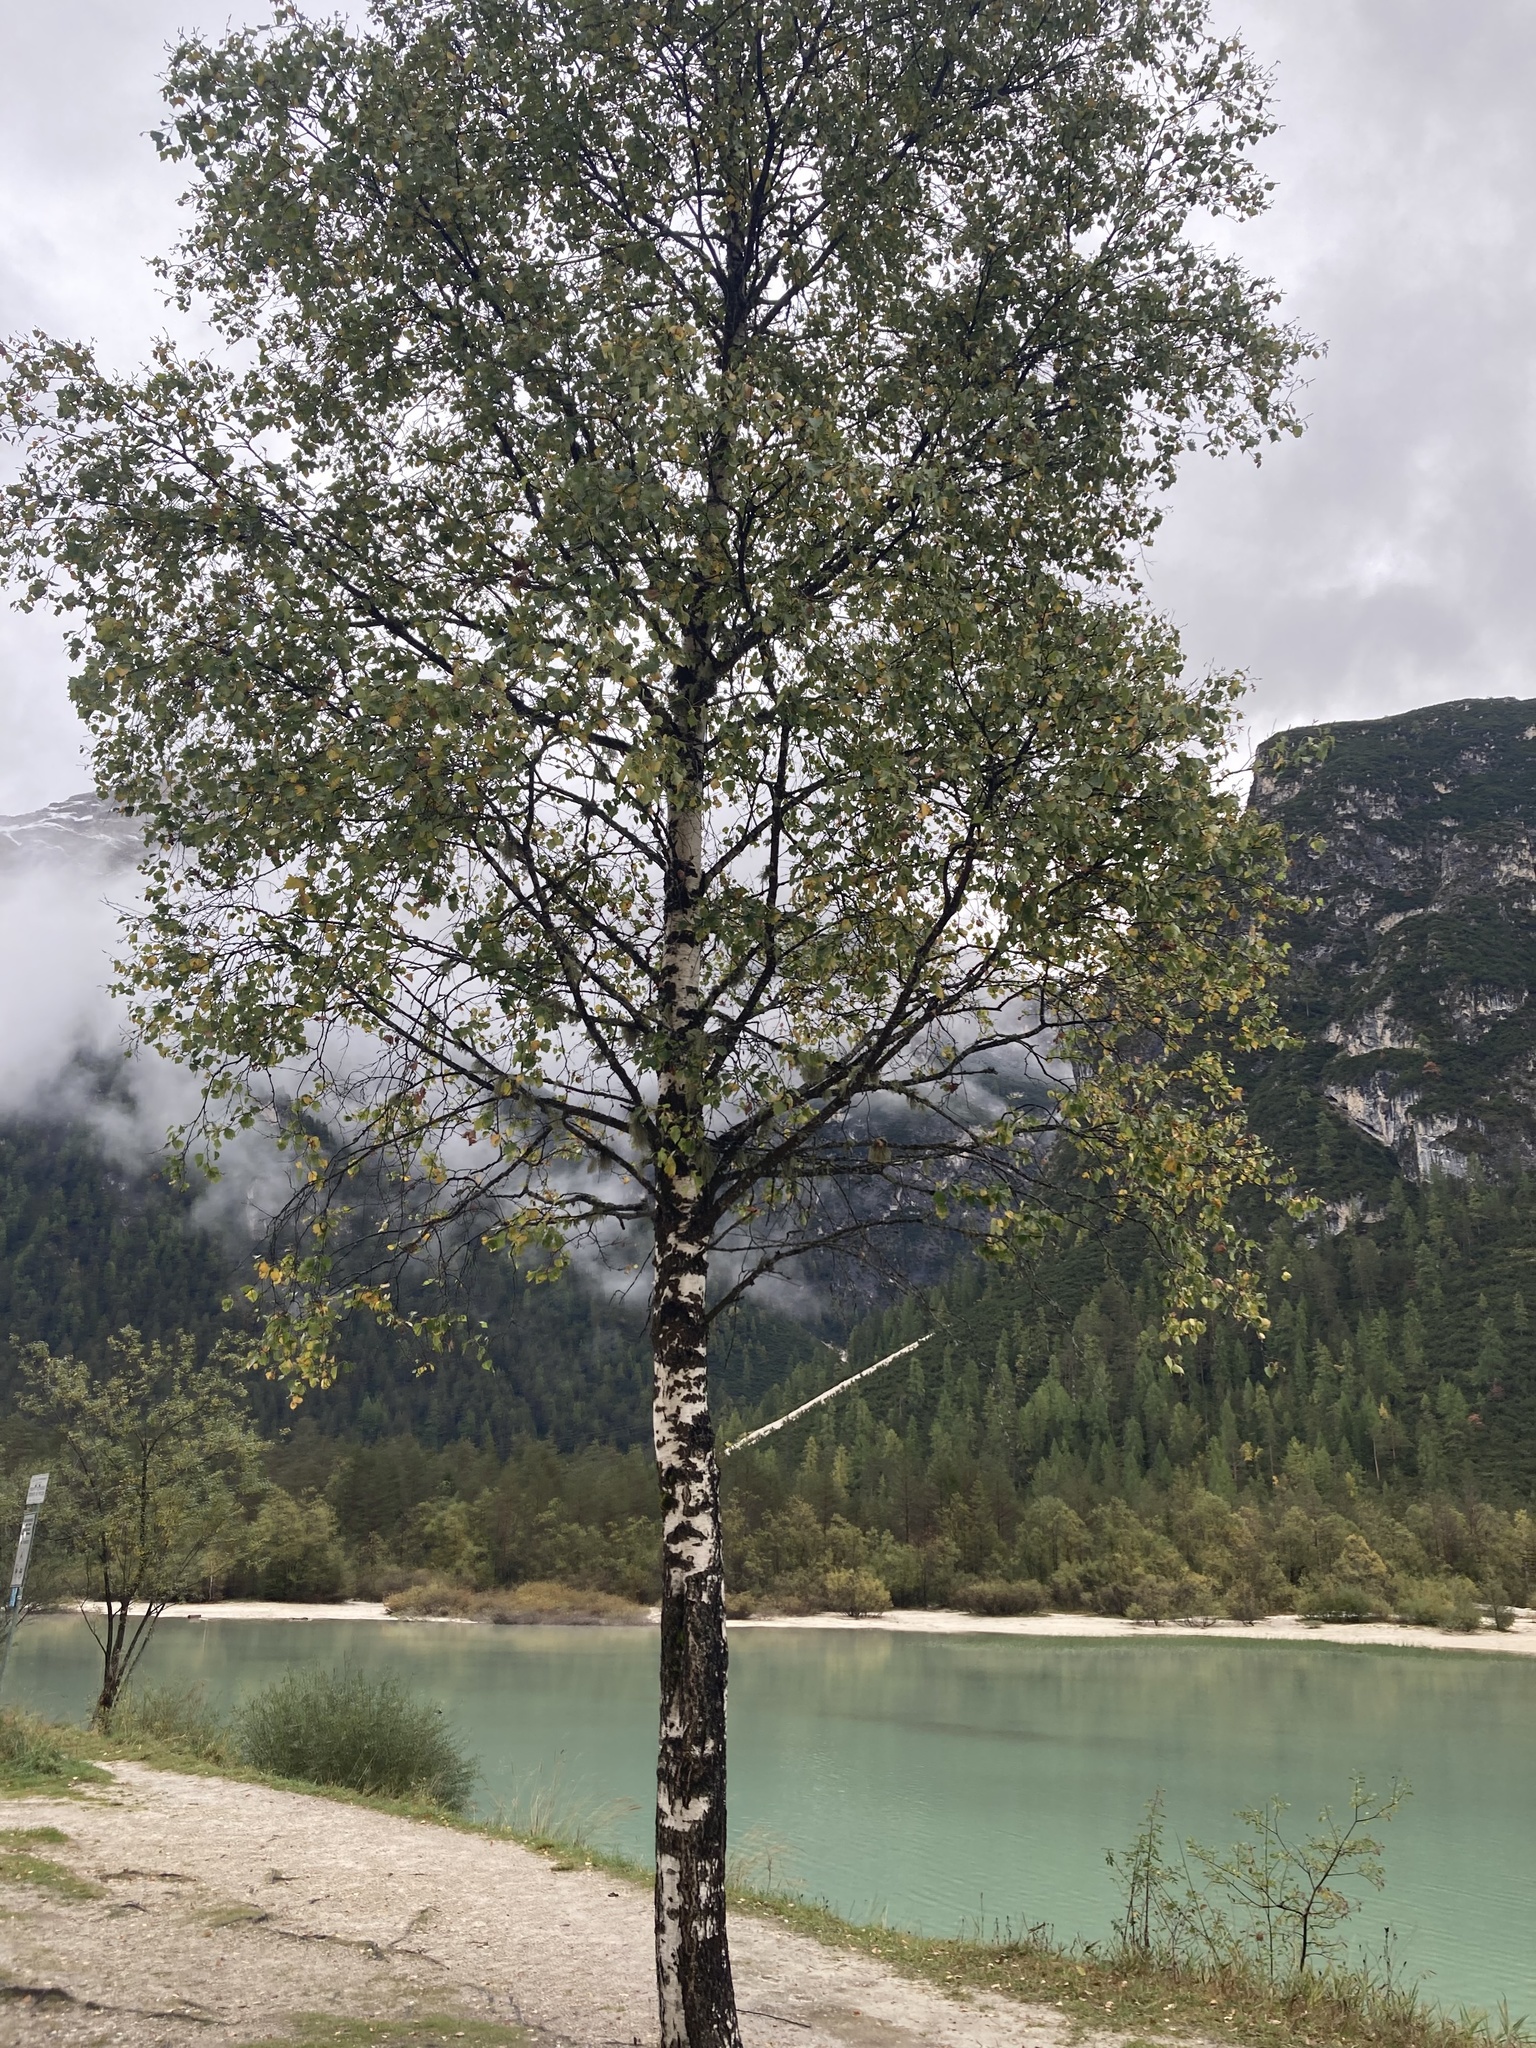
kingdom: Plantae
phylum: Tracheophyta
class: Magnoliopsida
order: Fagales
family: Betulaceae
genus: Betula
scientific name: Betula pendula
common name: Silver birch
